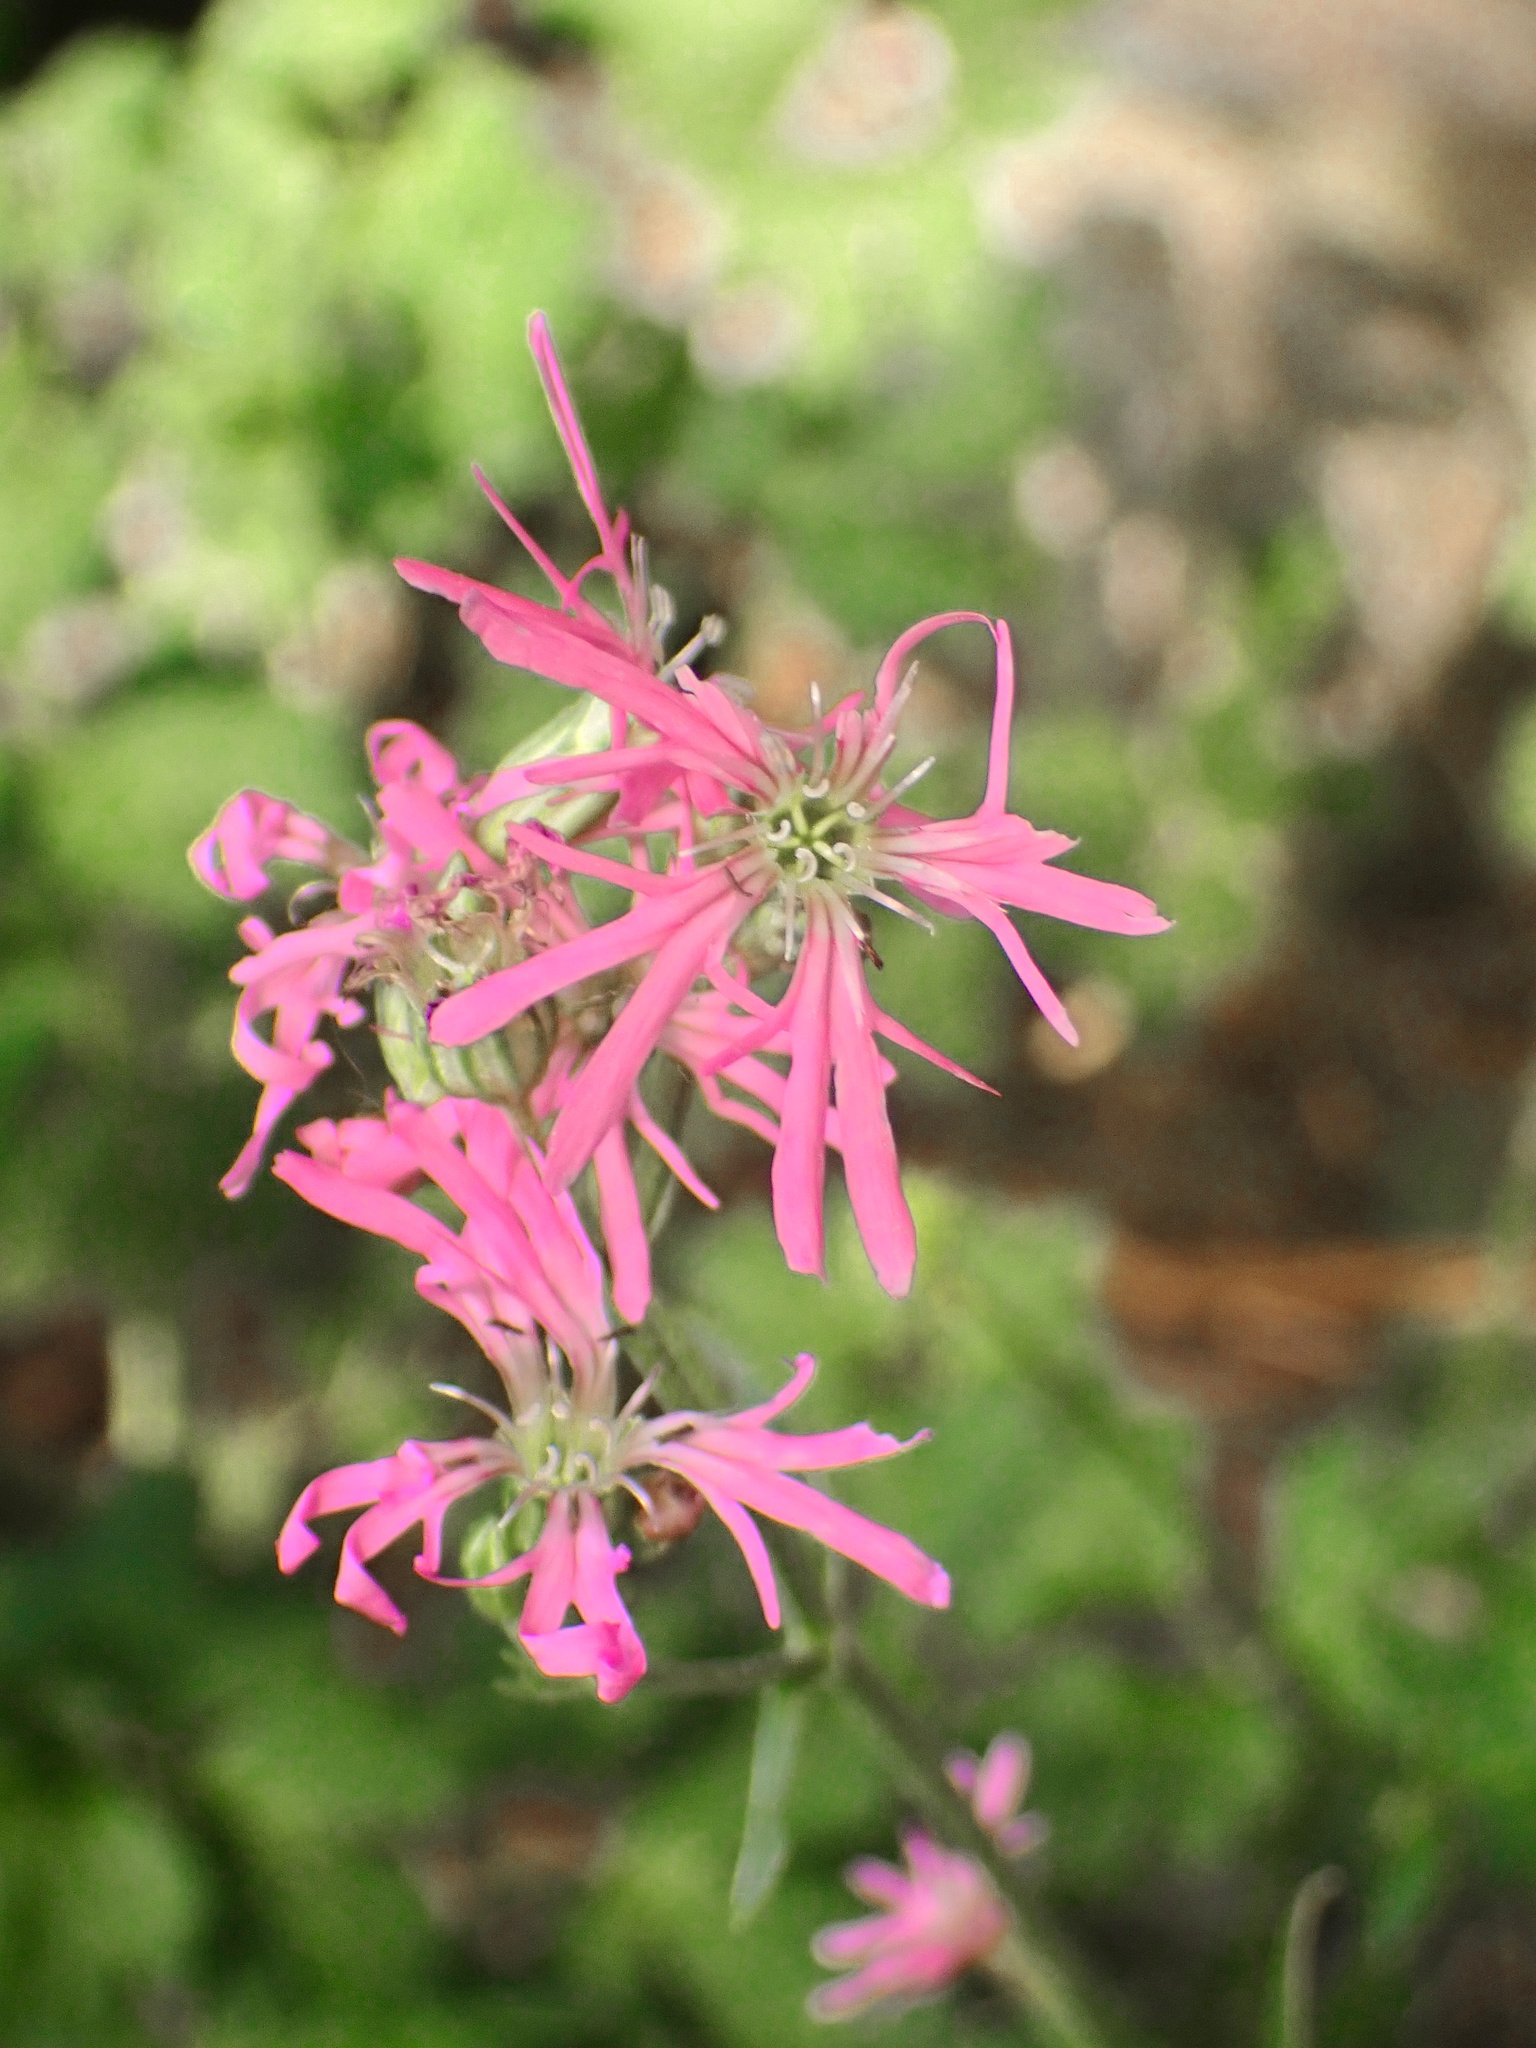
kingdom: Plantae
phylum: Tracheophyta
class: Magnoliopsida
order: Caryophyllales
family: Caryophyllaceae
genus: Silene
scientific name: Silene flos-cuculi
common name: Ragged-robin
